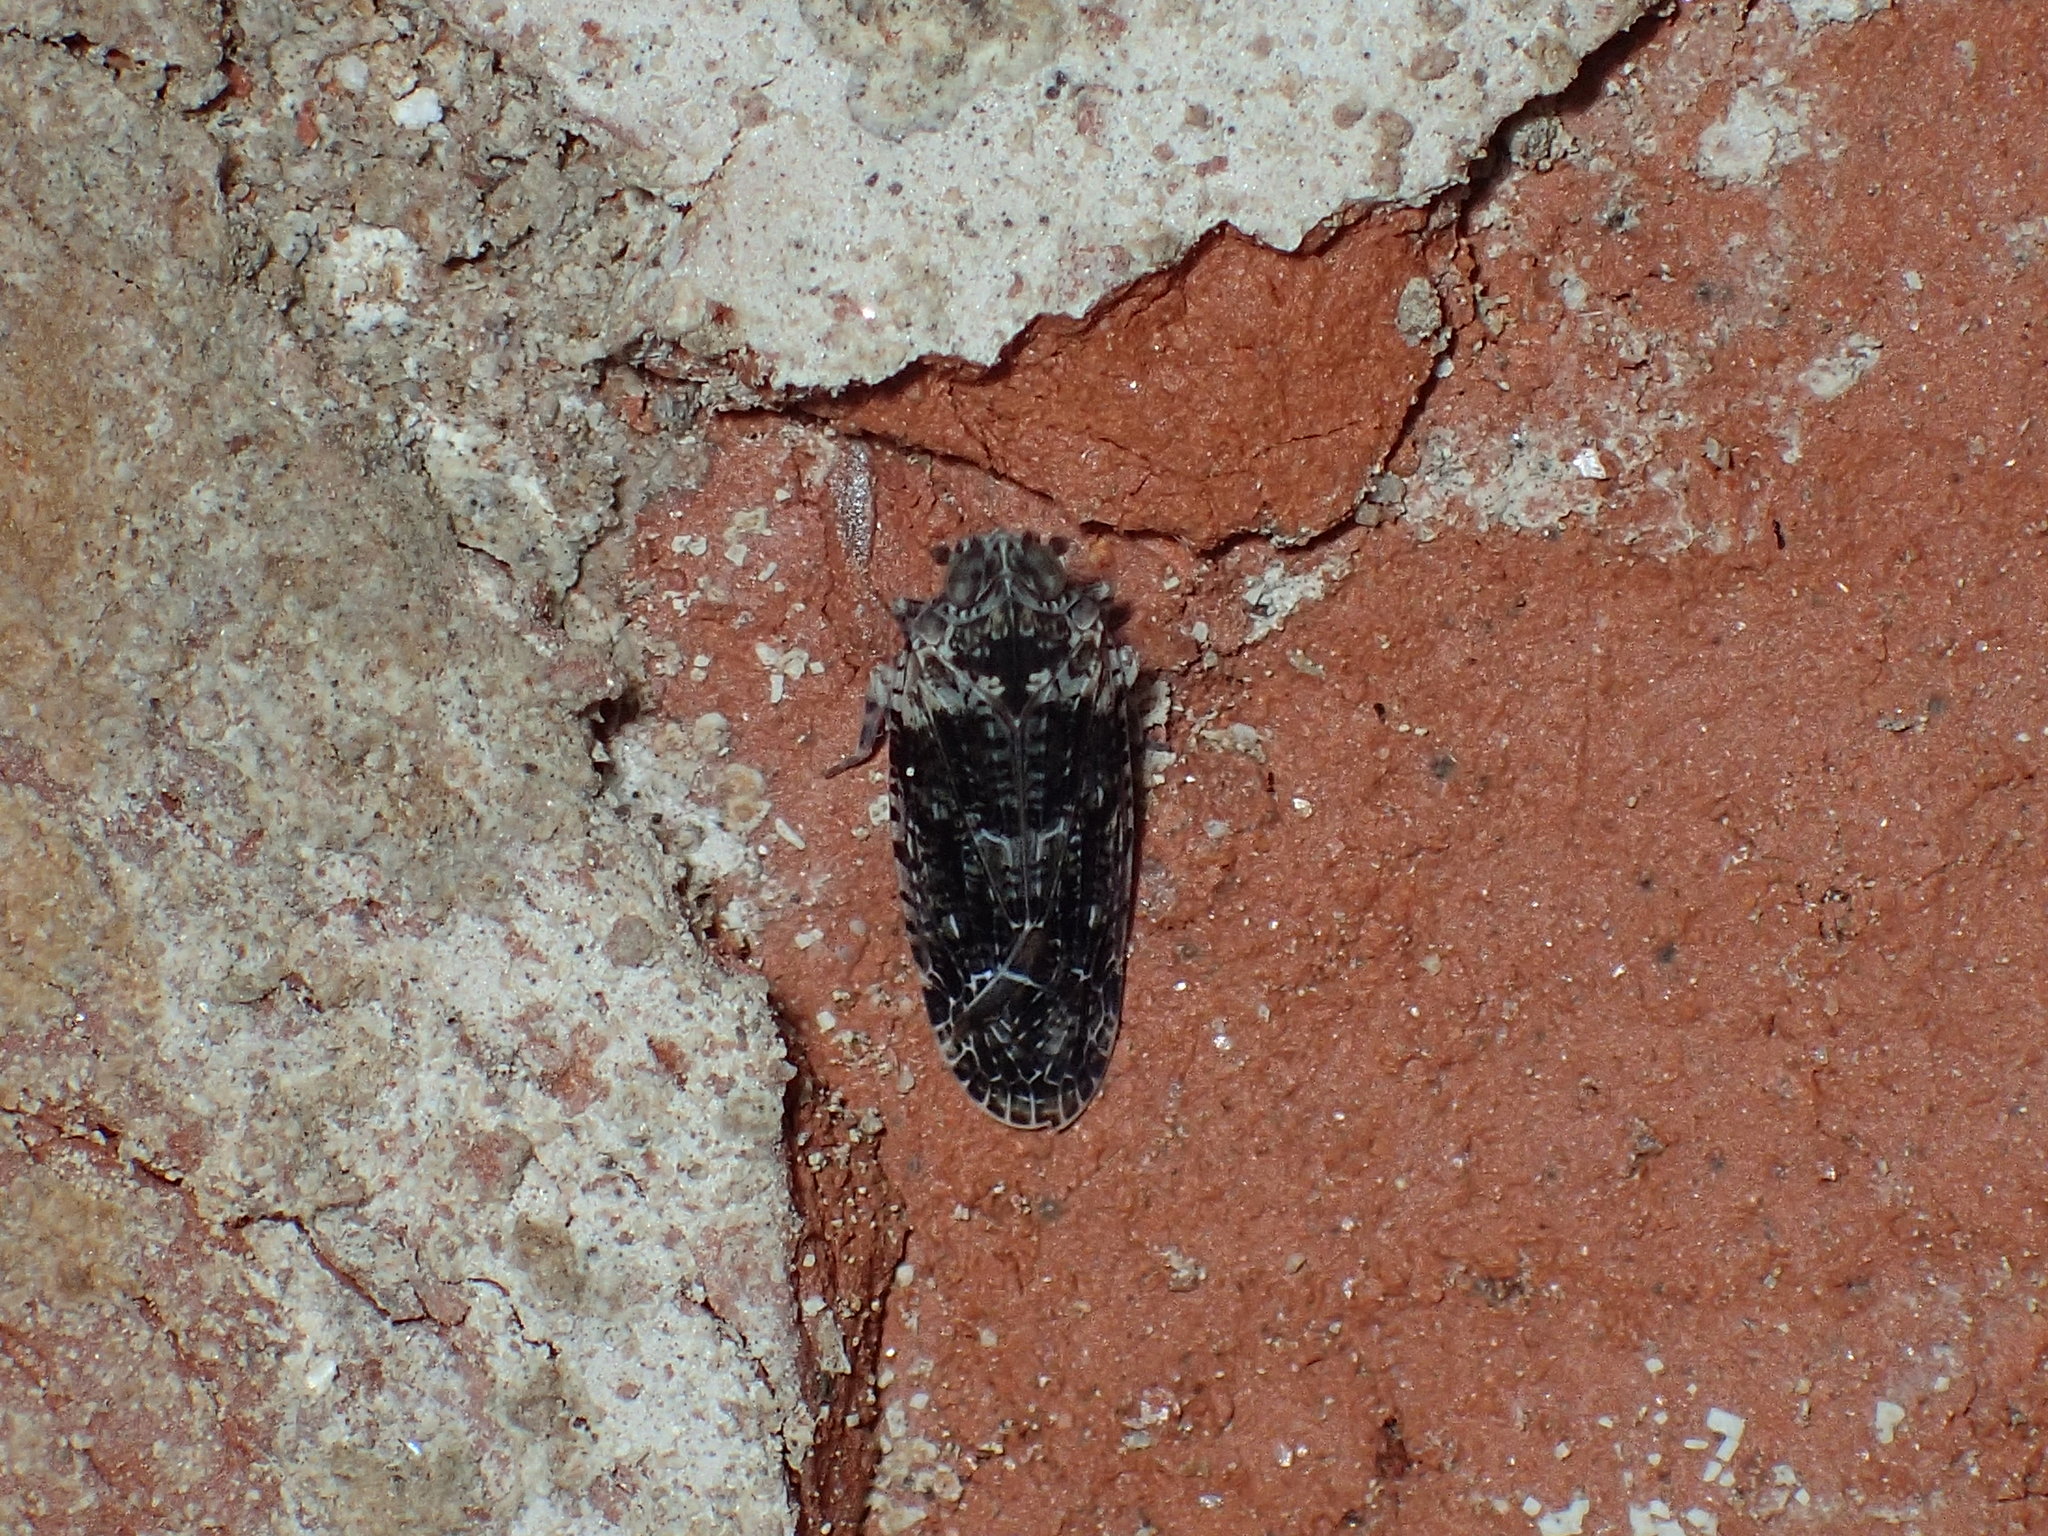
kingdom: Animalia
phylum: Arthropoda
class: Insecta
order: Hemiptera
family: Achilidae
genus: Catonia
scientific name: Catonia nava
